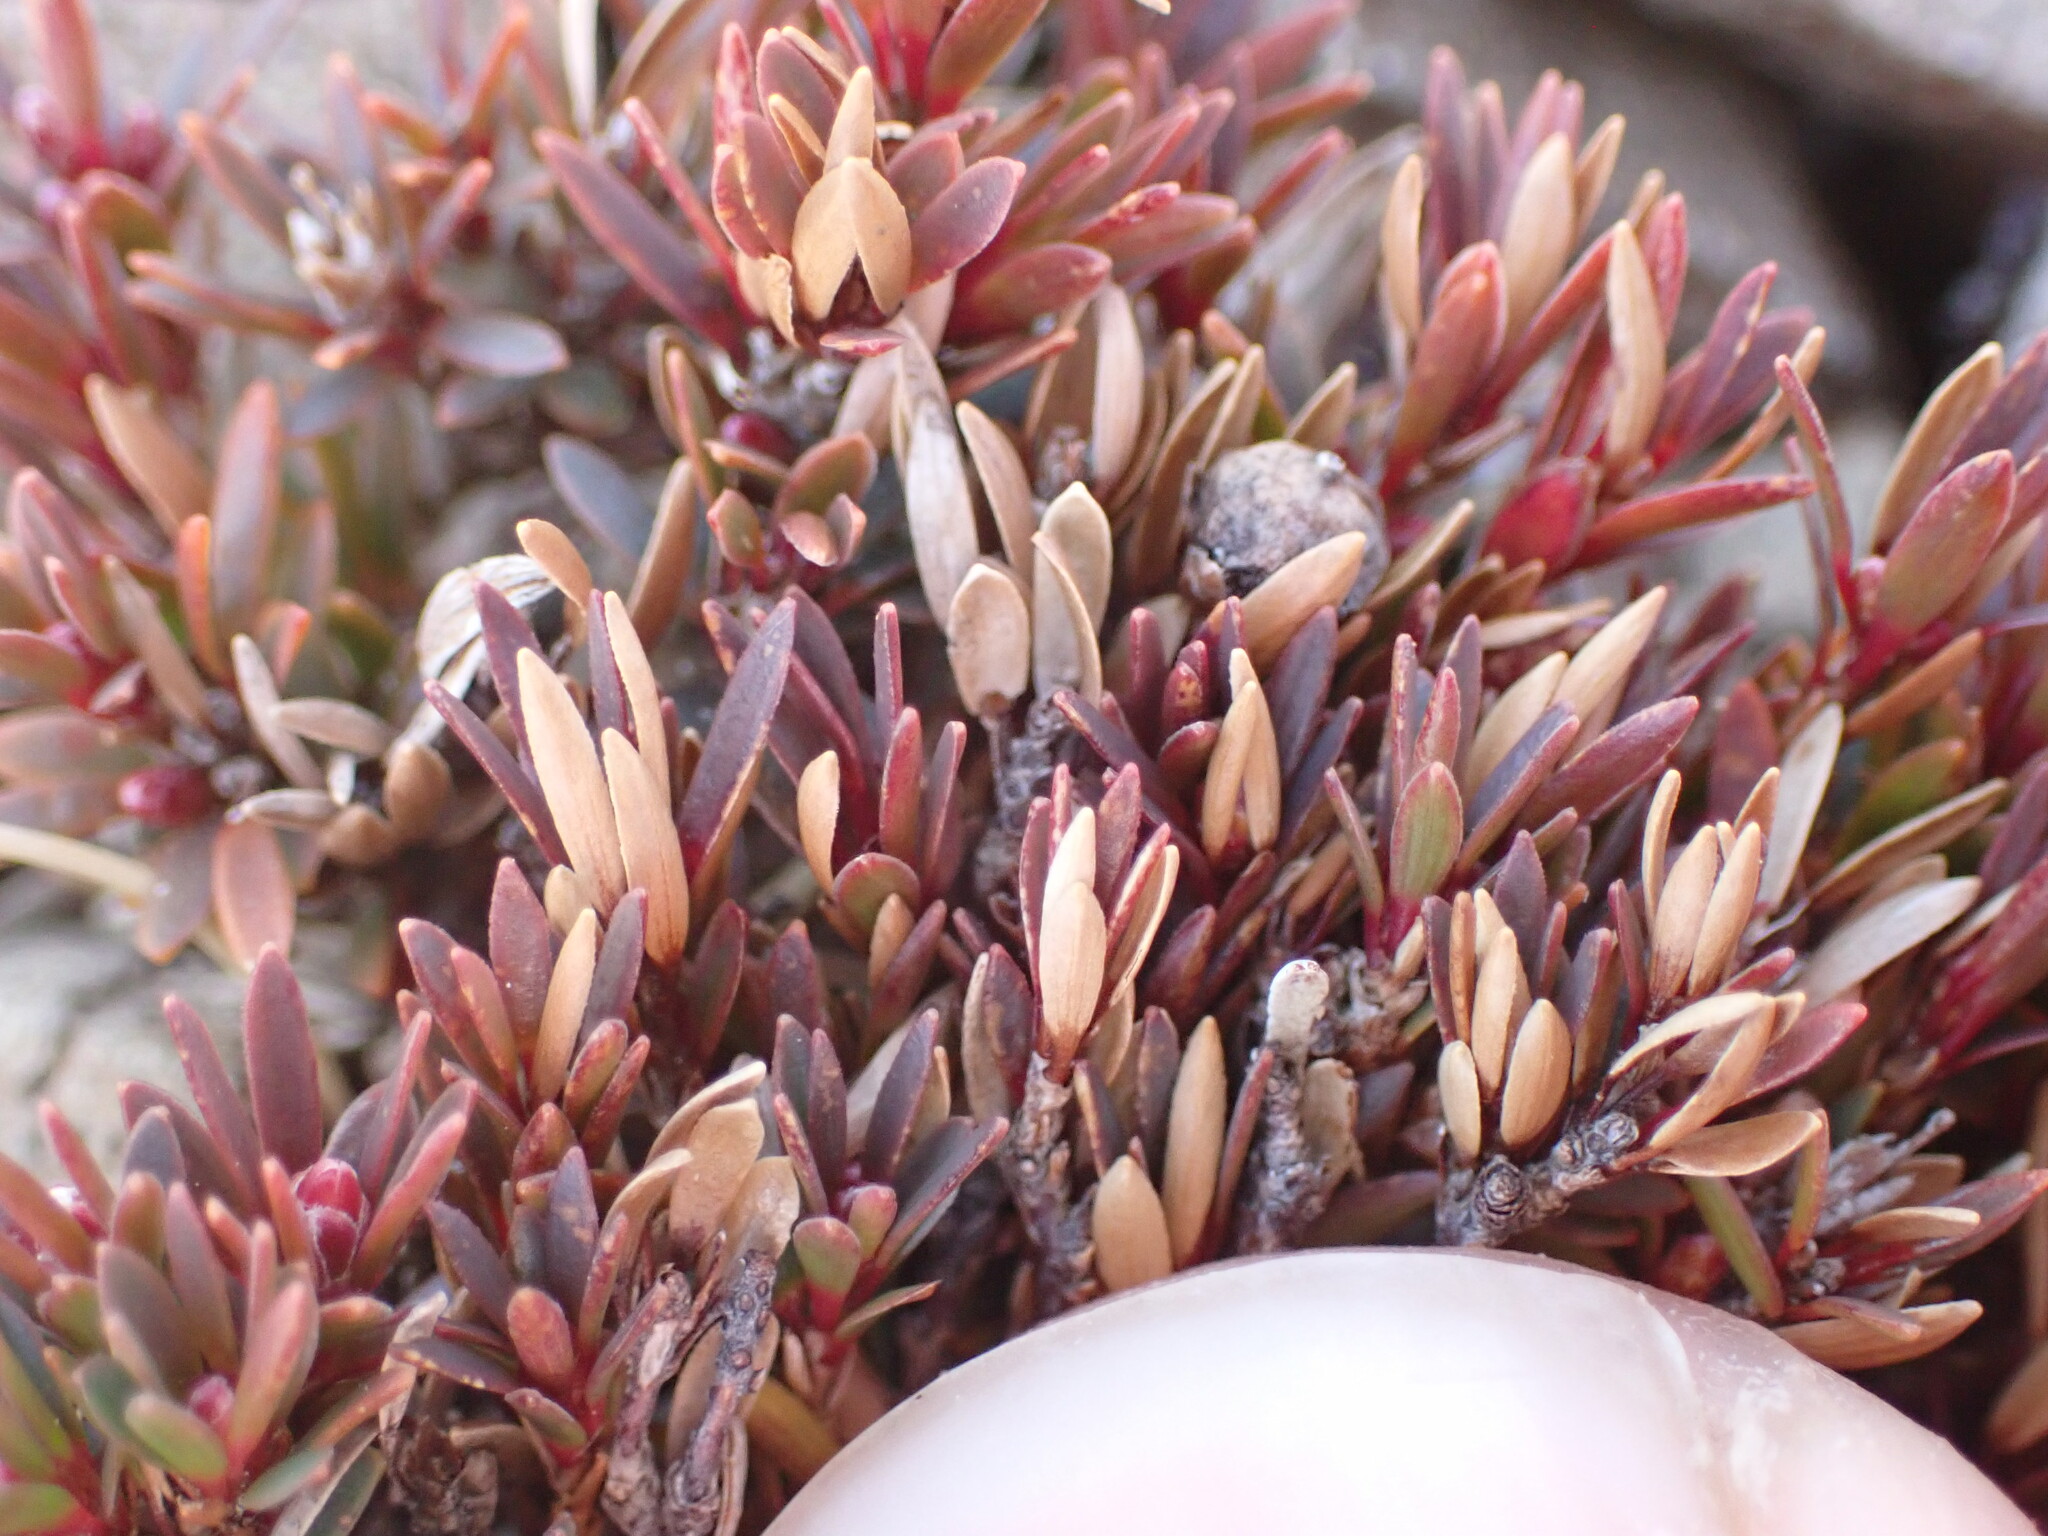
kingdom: Plantae
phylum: Tracheophyta
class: Magnoliopsida
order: Ericales
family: Ericaceae
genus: Pentachondra
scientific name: Pentachondra pumila
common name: Carpet-heath
